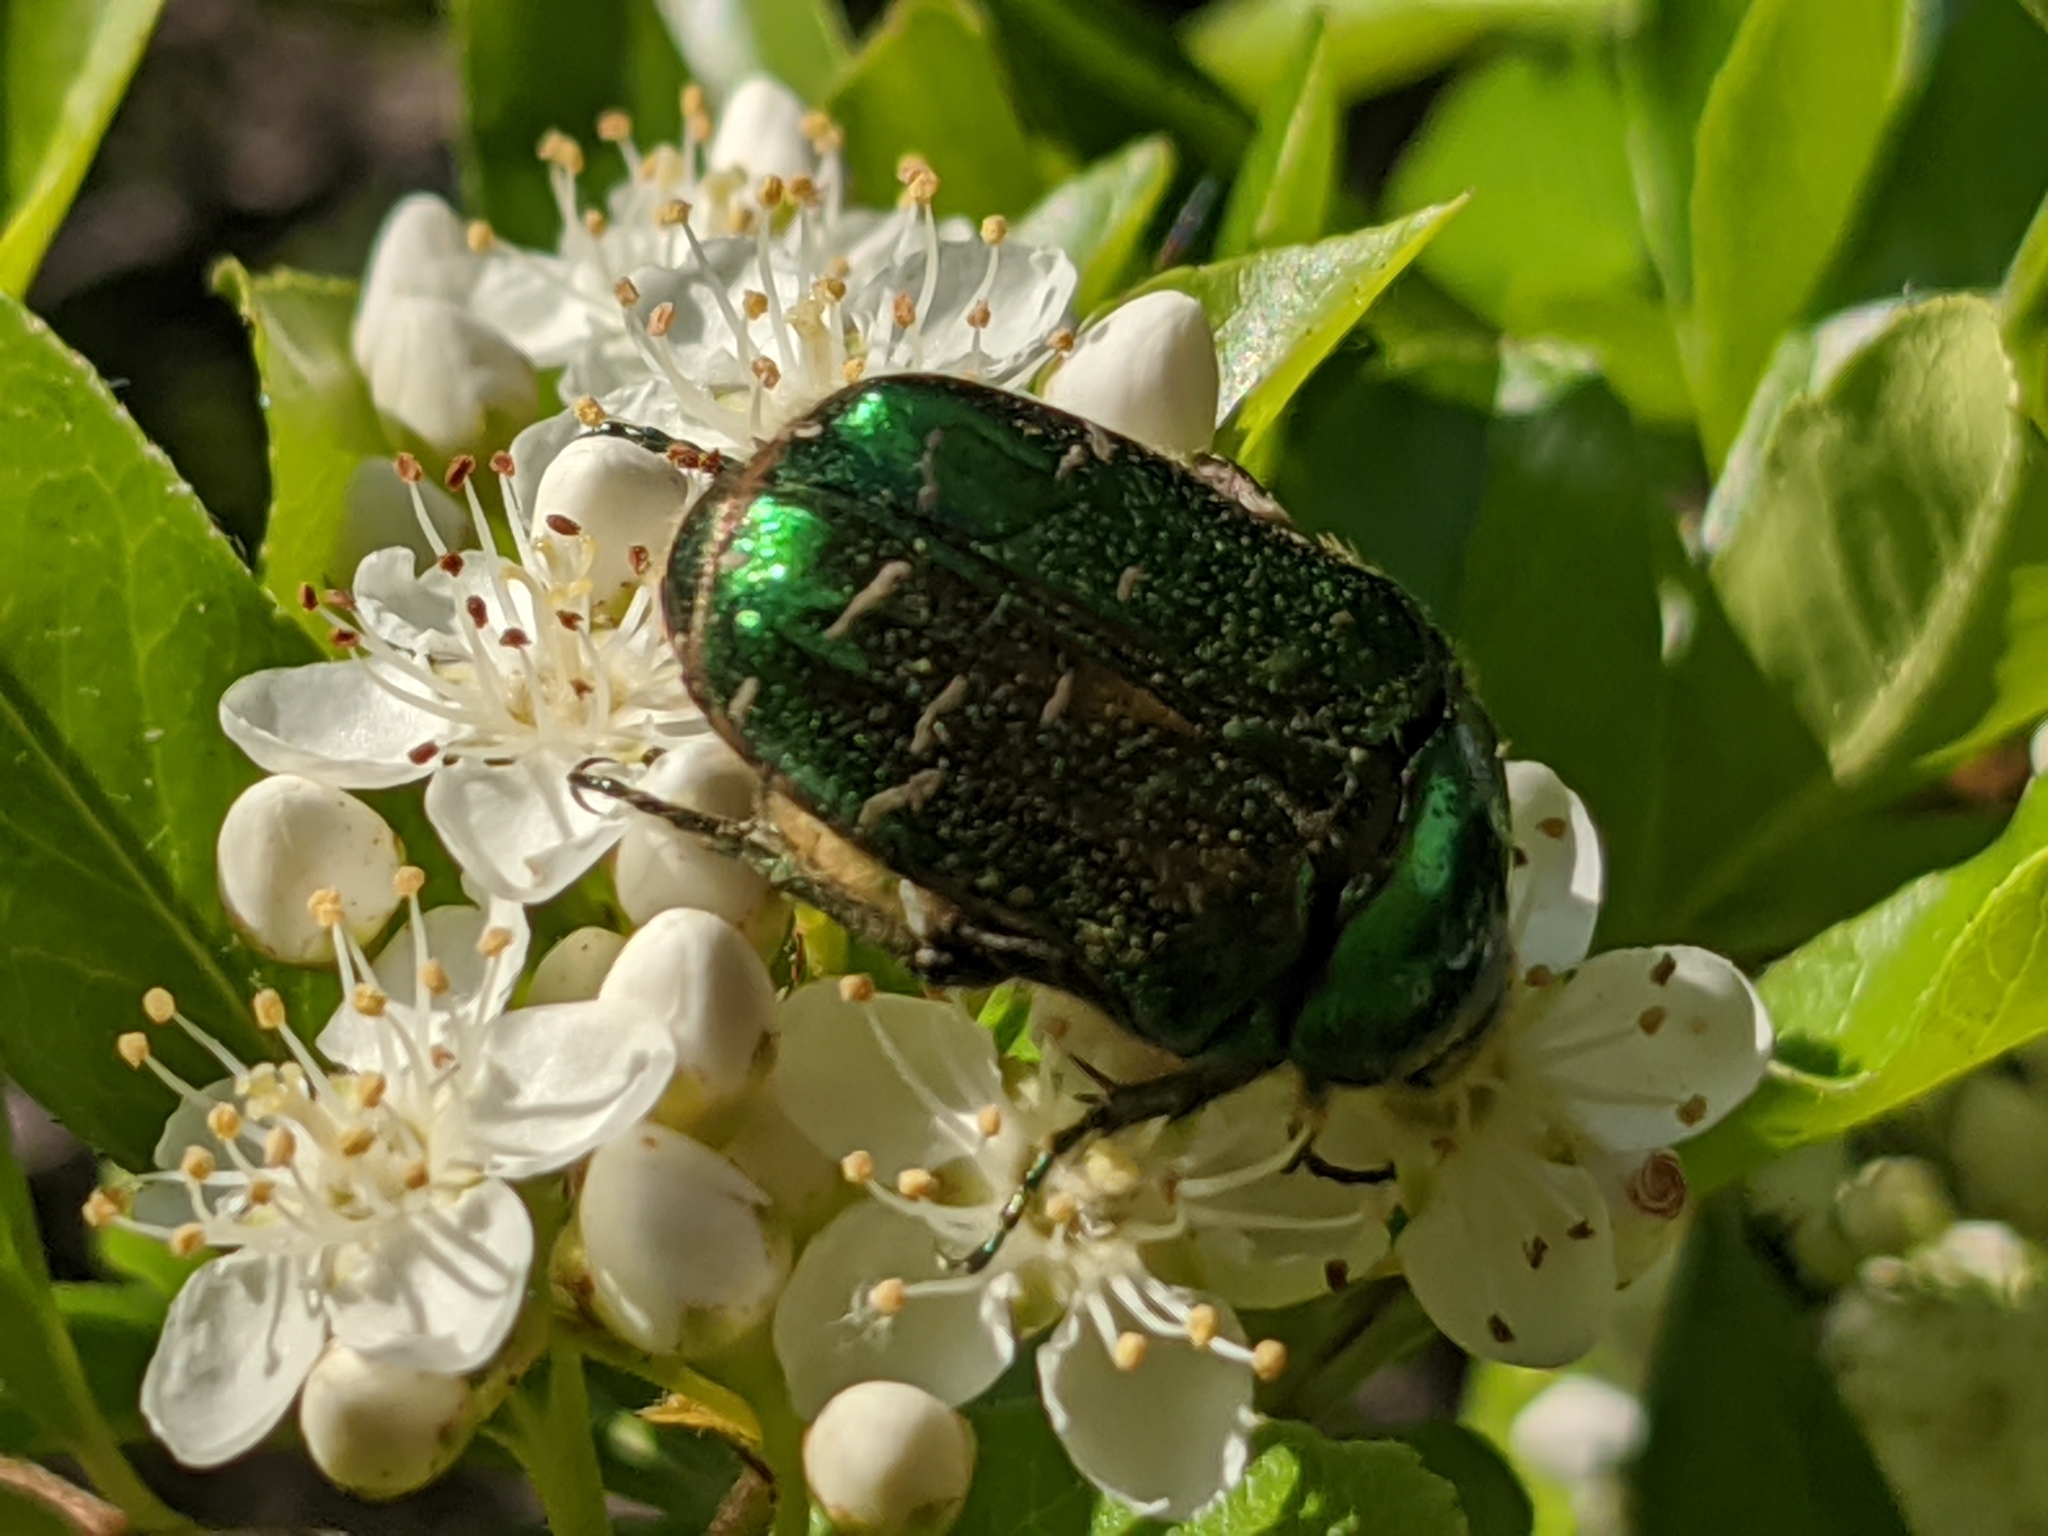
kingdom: Animalia
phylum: Arthropoda
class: Insecta
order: Coleoptera
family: Scarabaeidae
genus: Cetonia
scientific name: Cetonia aurata
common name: Rose chafer
